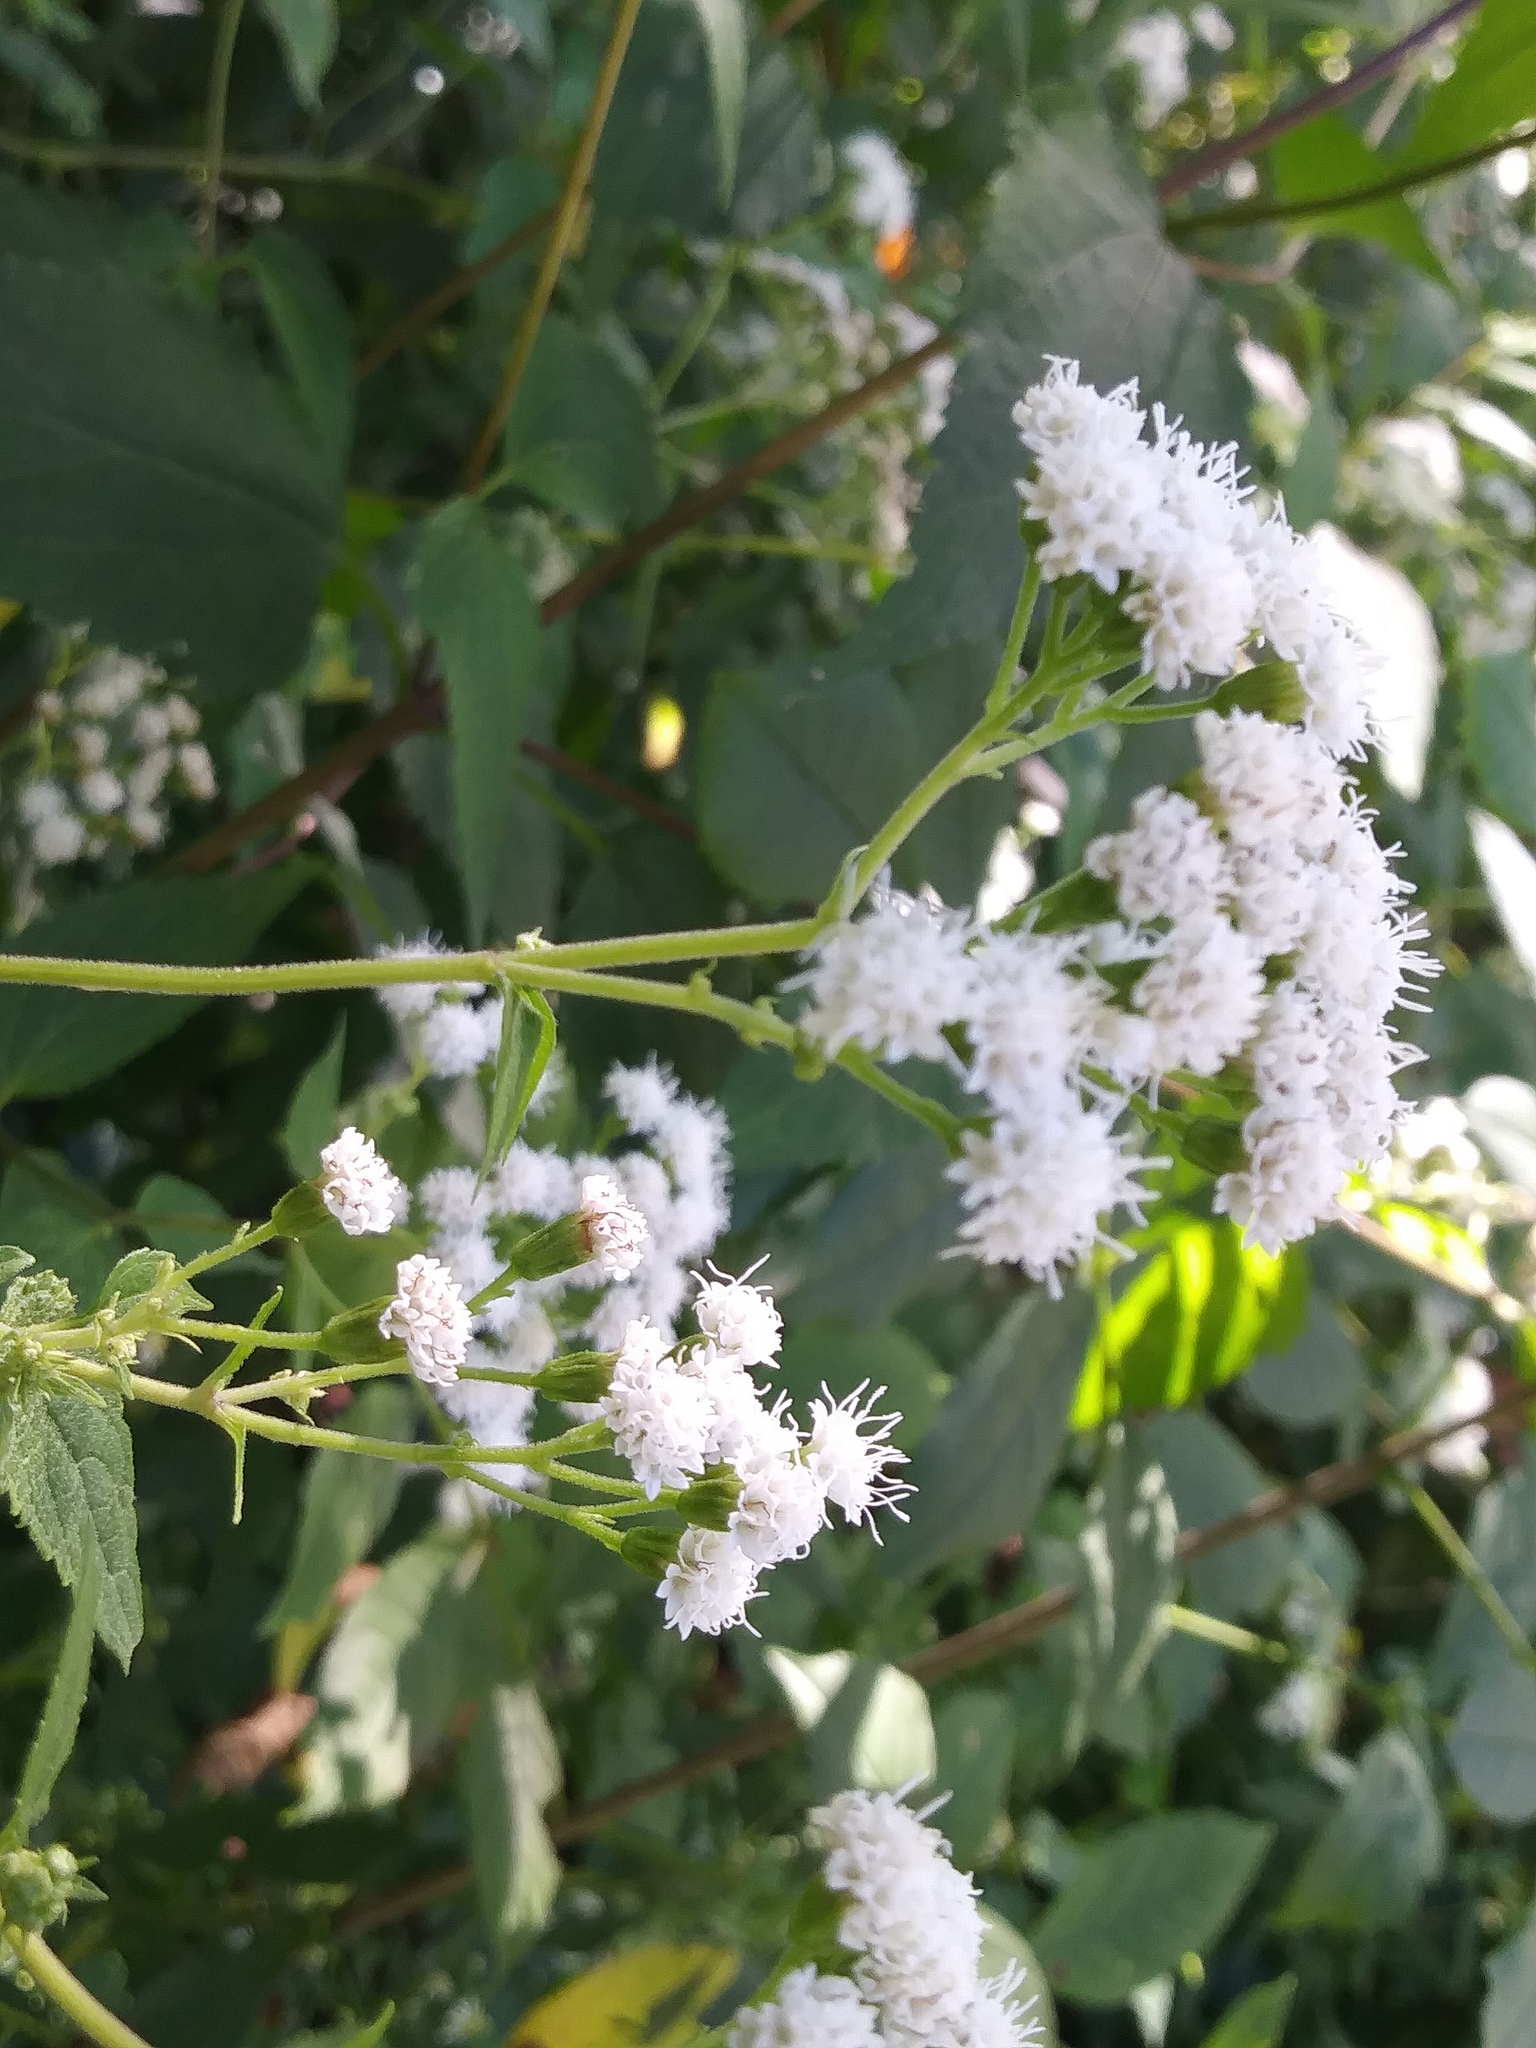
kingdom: Plantae
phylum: Tracheophyta
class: Magnoliopsida
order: Asterales
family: Asteraceae
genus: Ageratina
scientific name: Ageratina altissima
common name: White snakeroot
